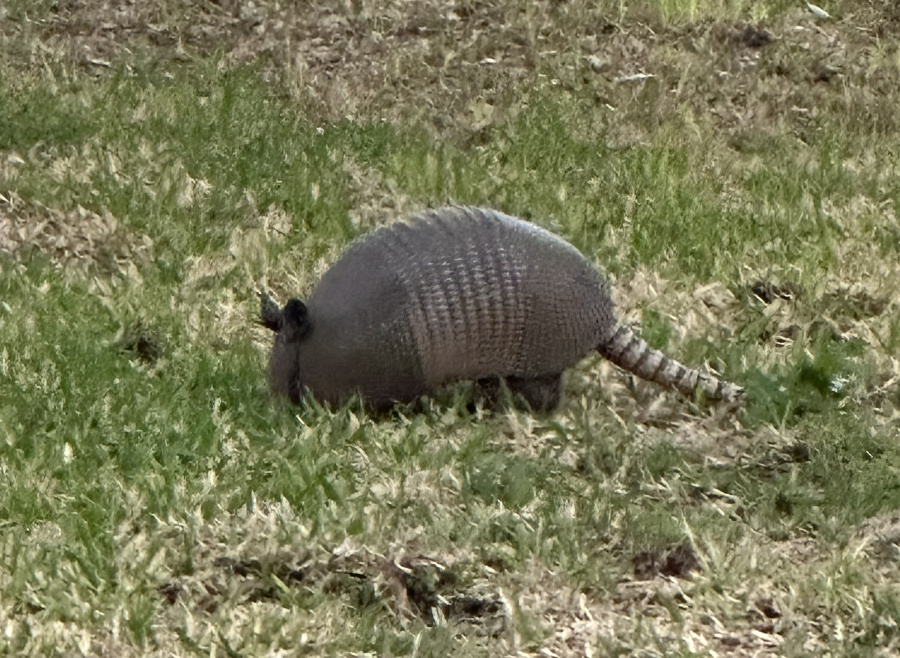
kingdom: Animalia
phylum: Chordata
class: Mammalia
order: Cingulata
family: Dasypodidae
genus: Dasypus
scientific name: Dasypus novemcinctus
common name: Nine-banded armadillo
